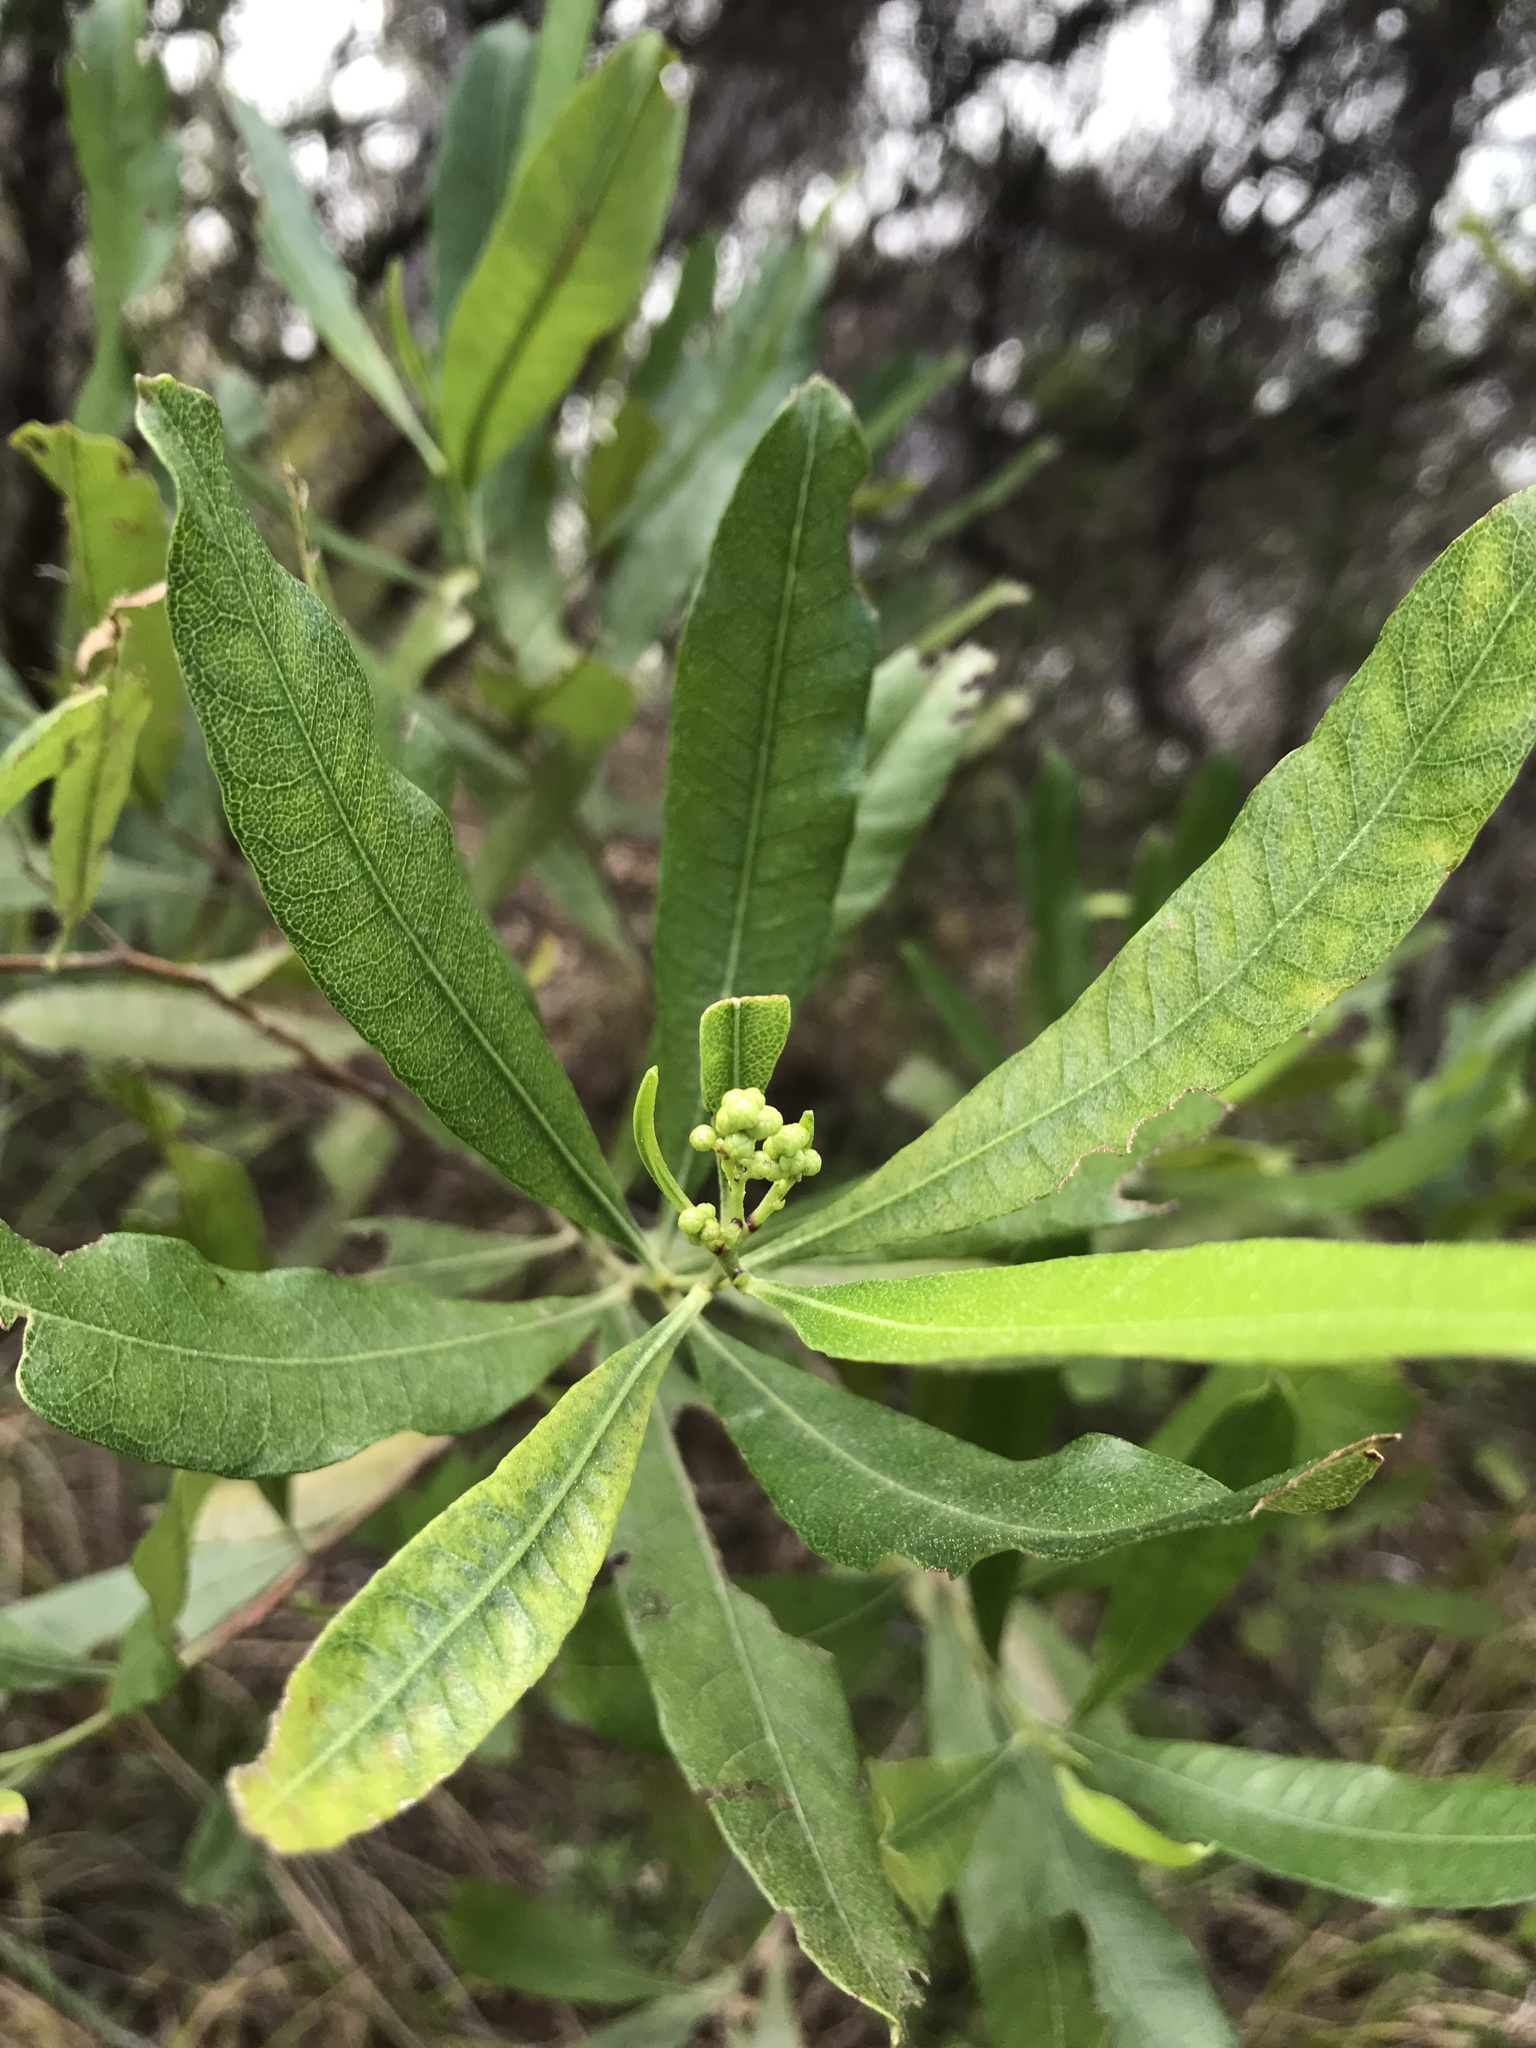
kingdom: Plantae
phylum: Tracheophyta
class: Magnoliopsida
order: Sapindales
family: Sapindaceae
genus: Dodonaea
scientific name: Dodonaea viscosa
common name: Hopbush
